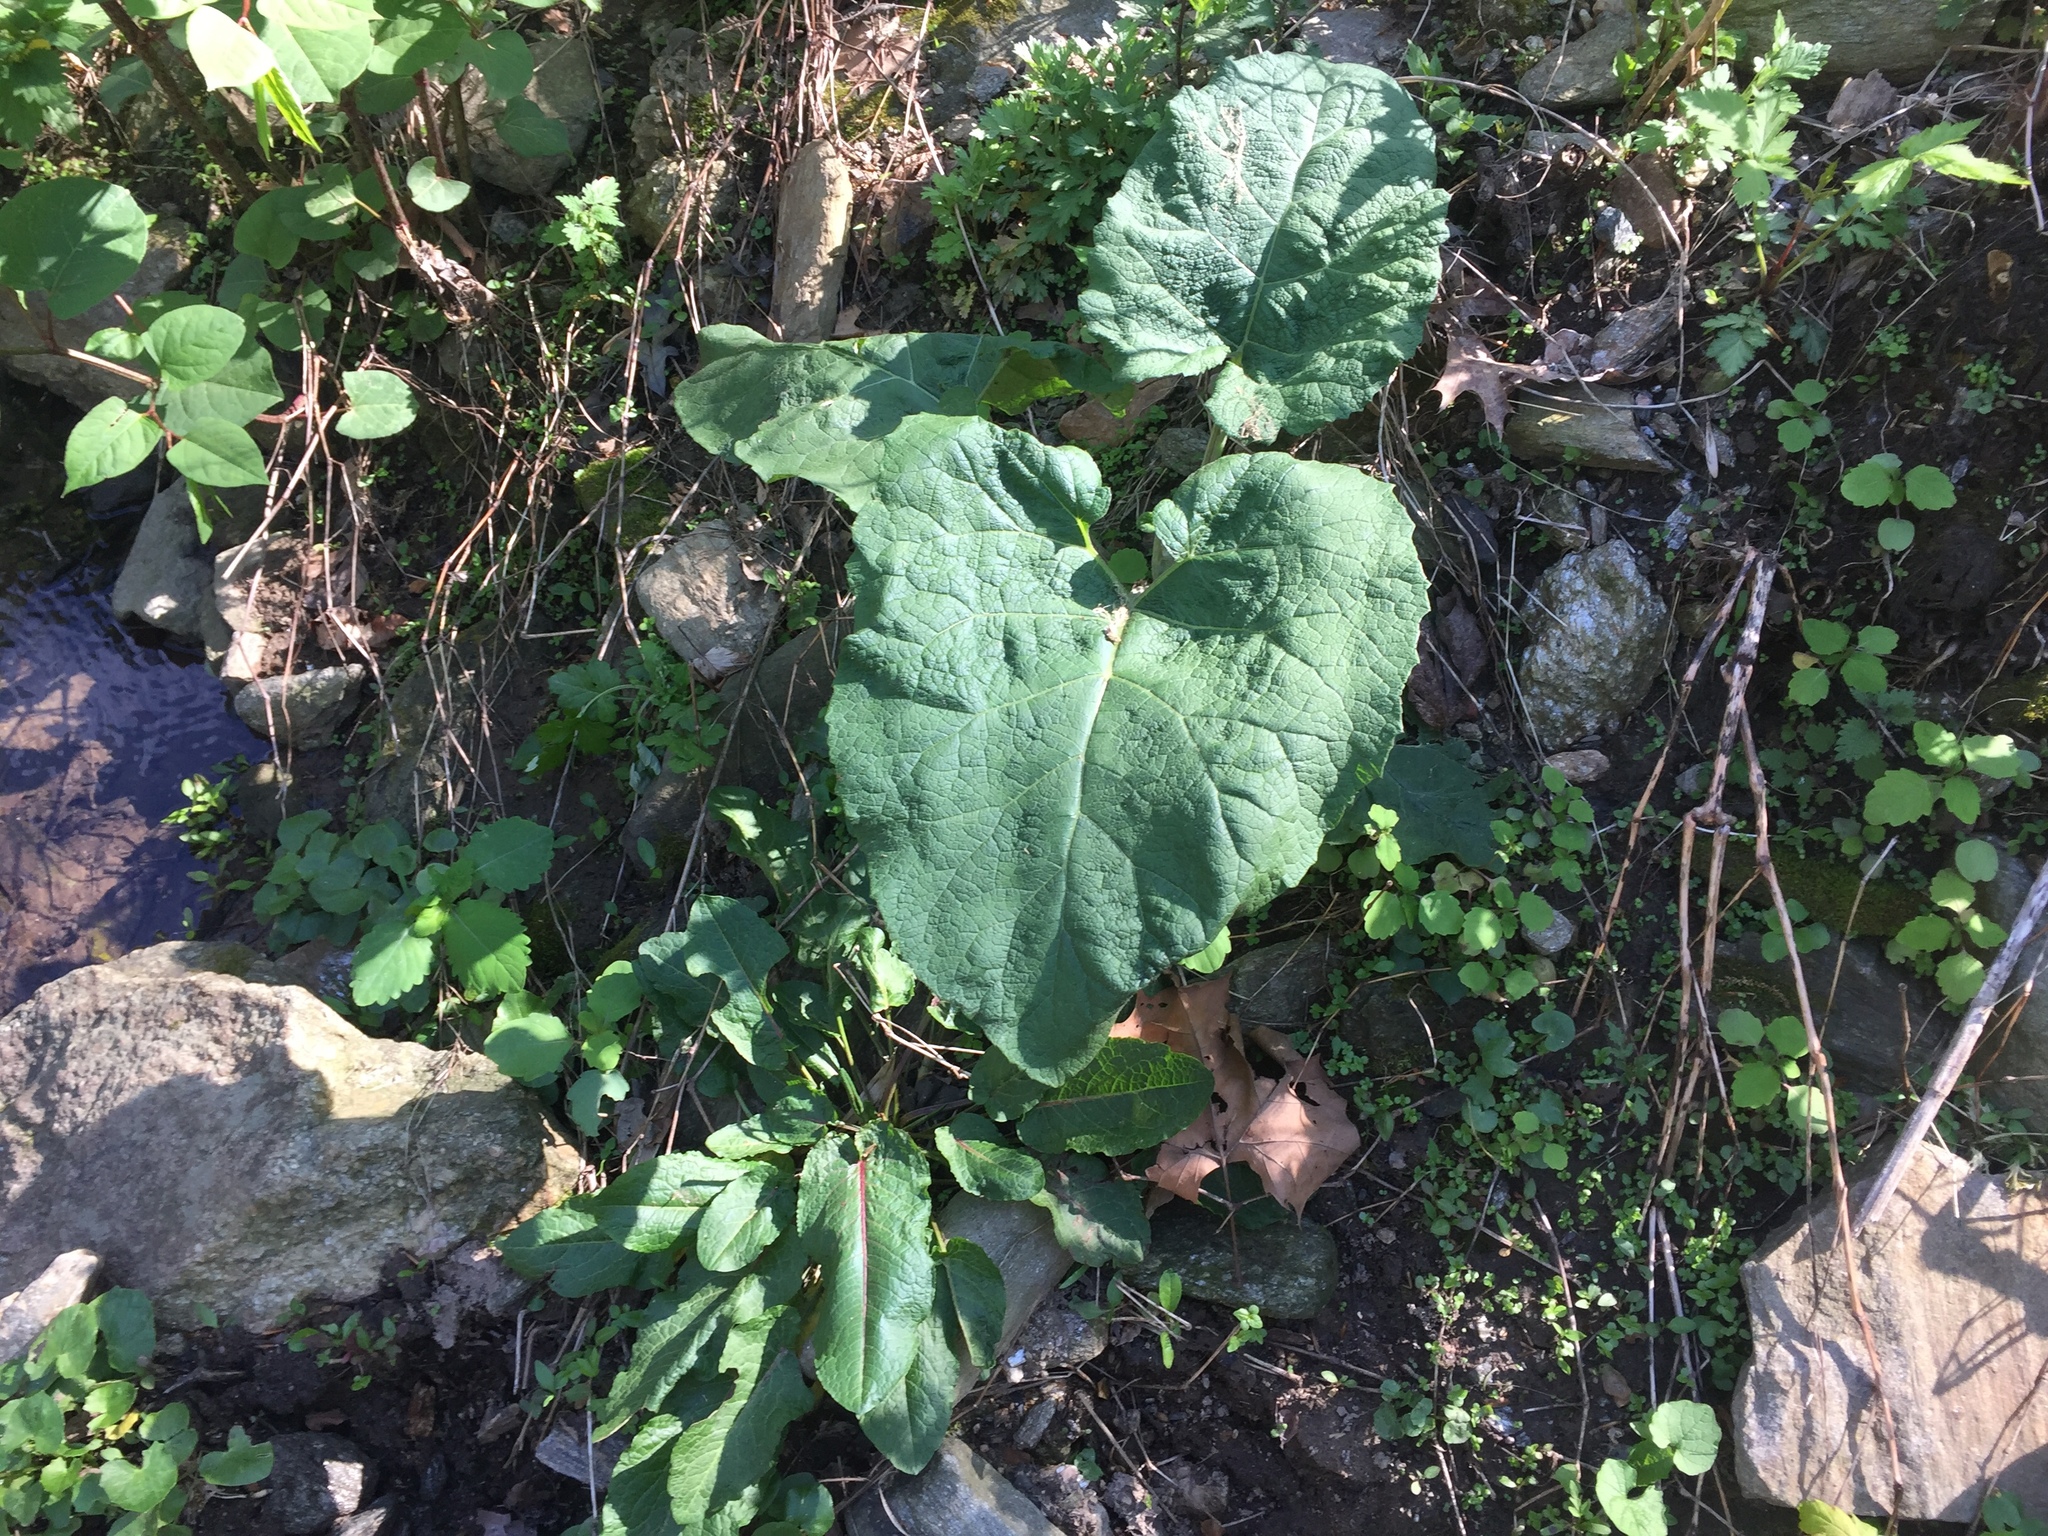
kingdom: Plantae
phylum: Tracheophyta
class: Magnoliopsida
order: Asterales
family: Asteraceae
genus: Arctium
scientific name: Arctium
